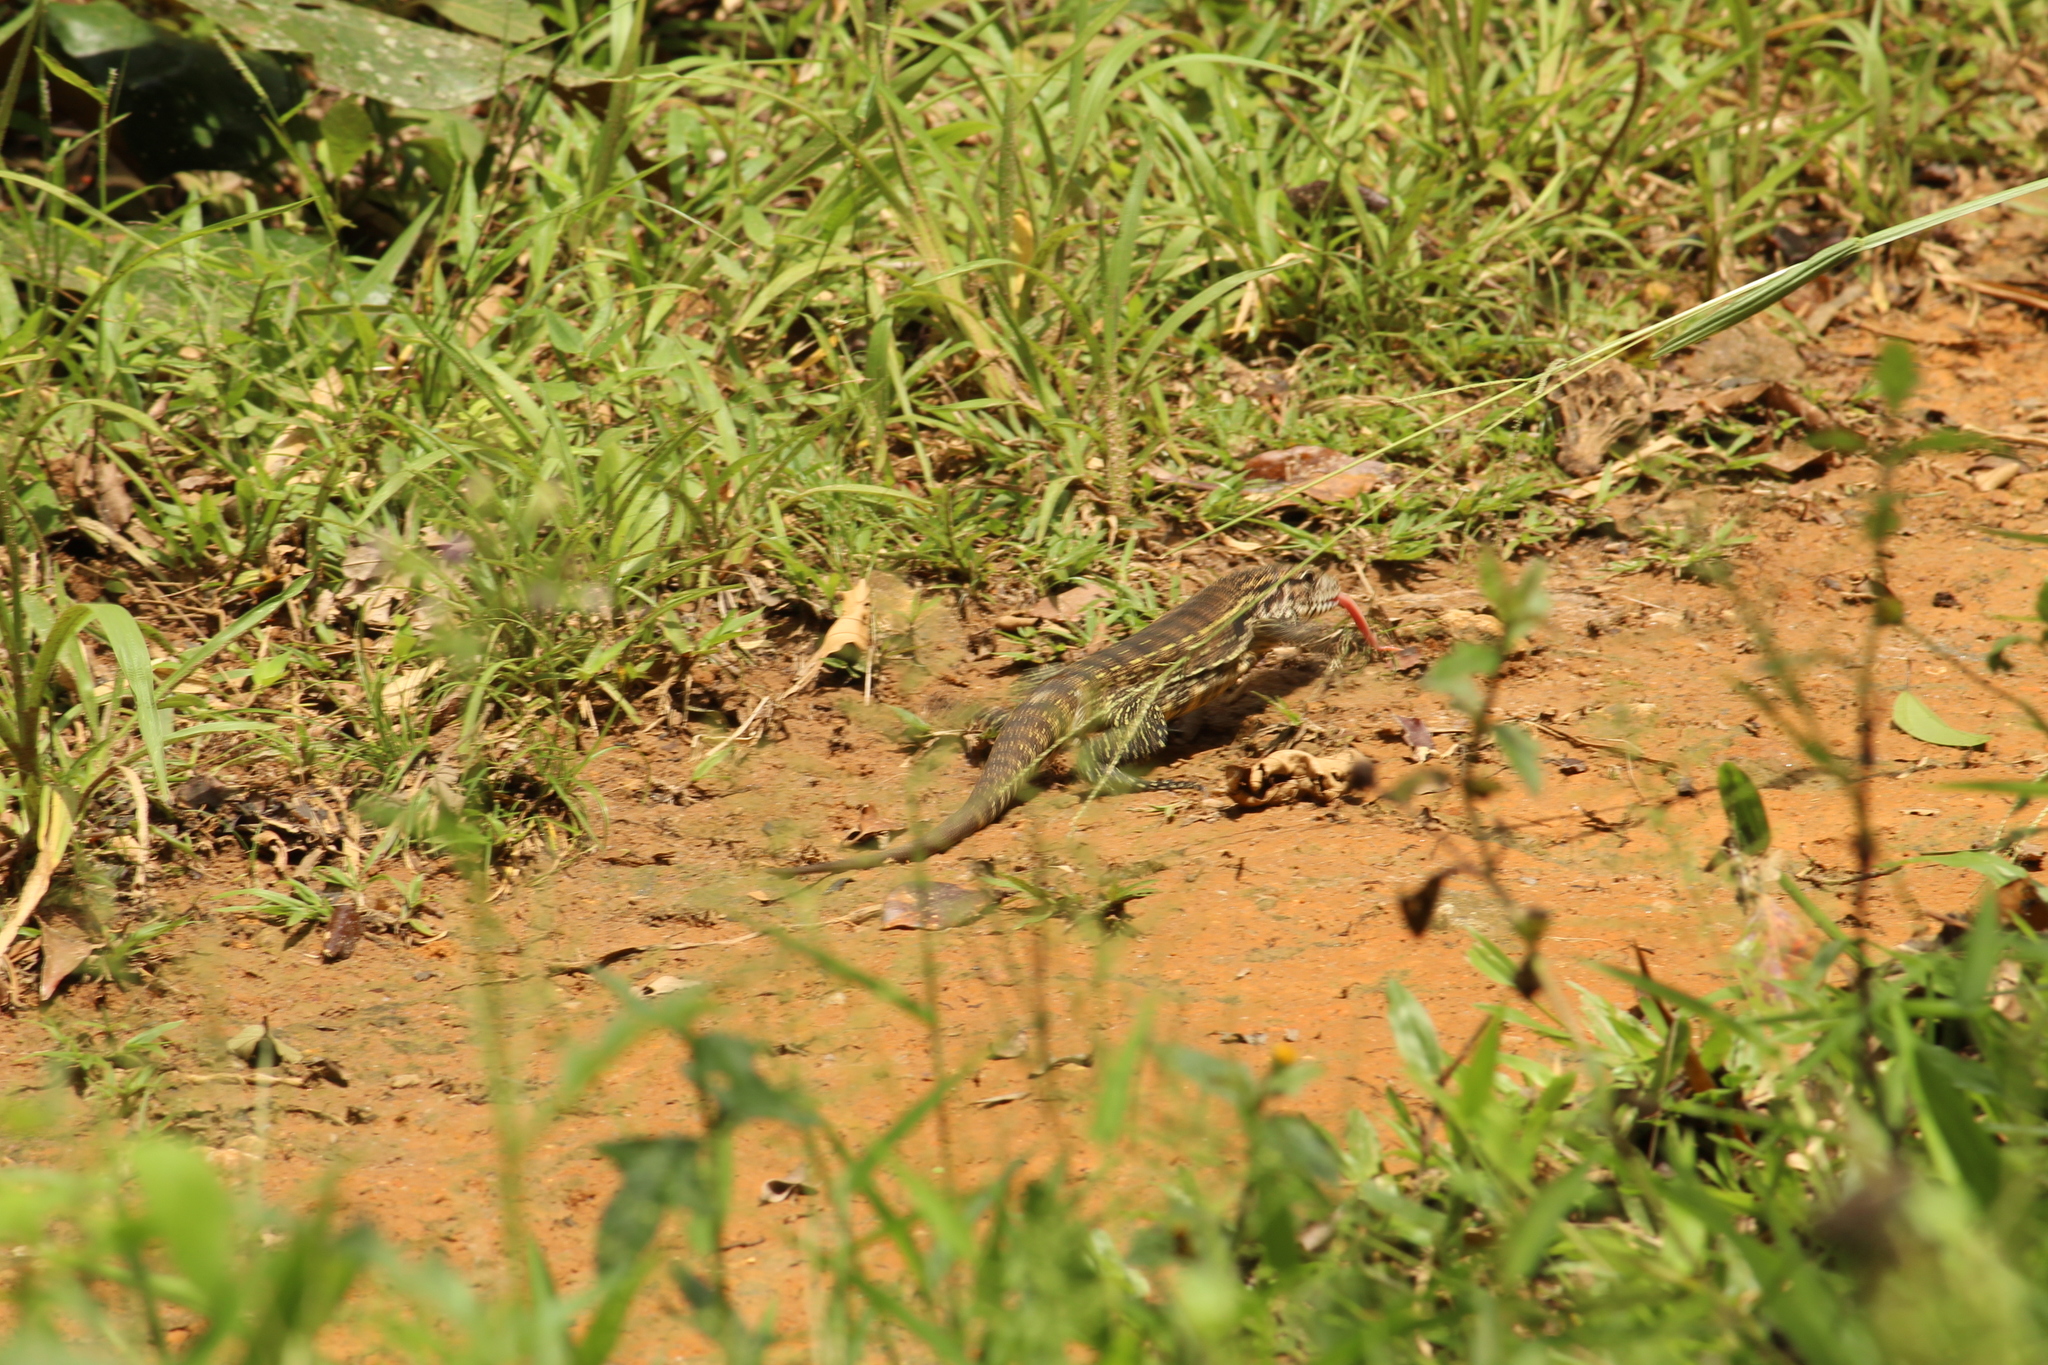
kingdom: Animalia
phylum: Chordata
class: Squamata
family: Teiidae
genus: Salvator
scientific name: Salvator merianae
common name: Argentine black and white tegu
